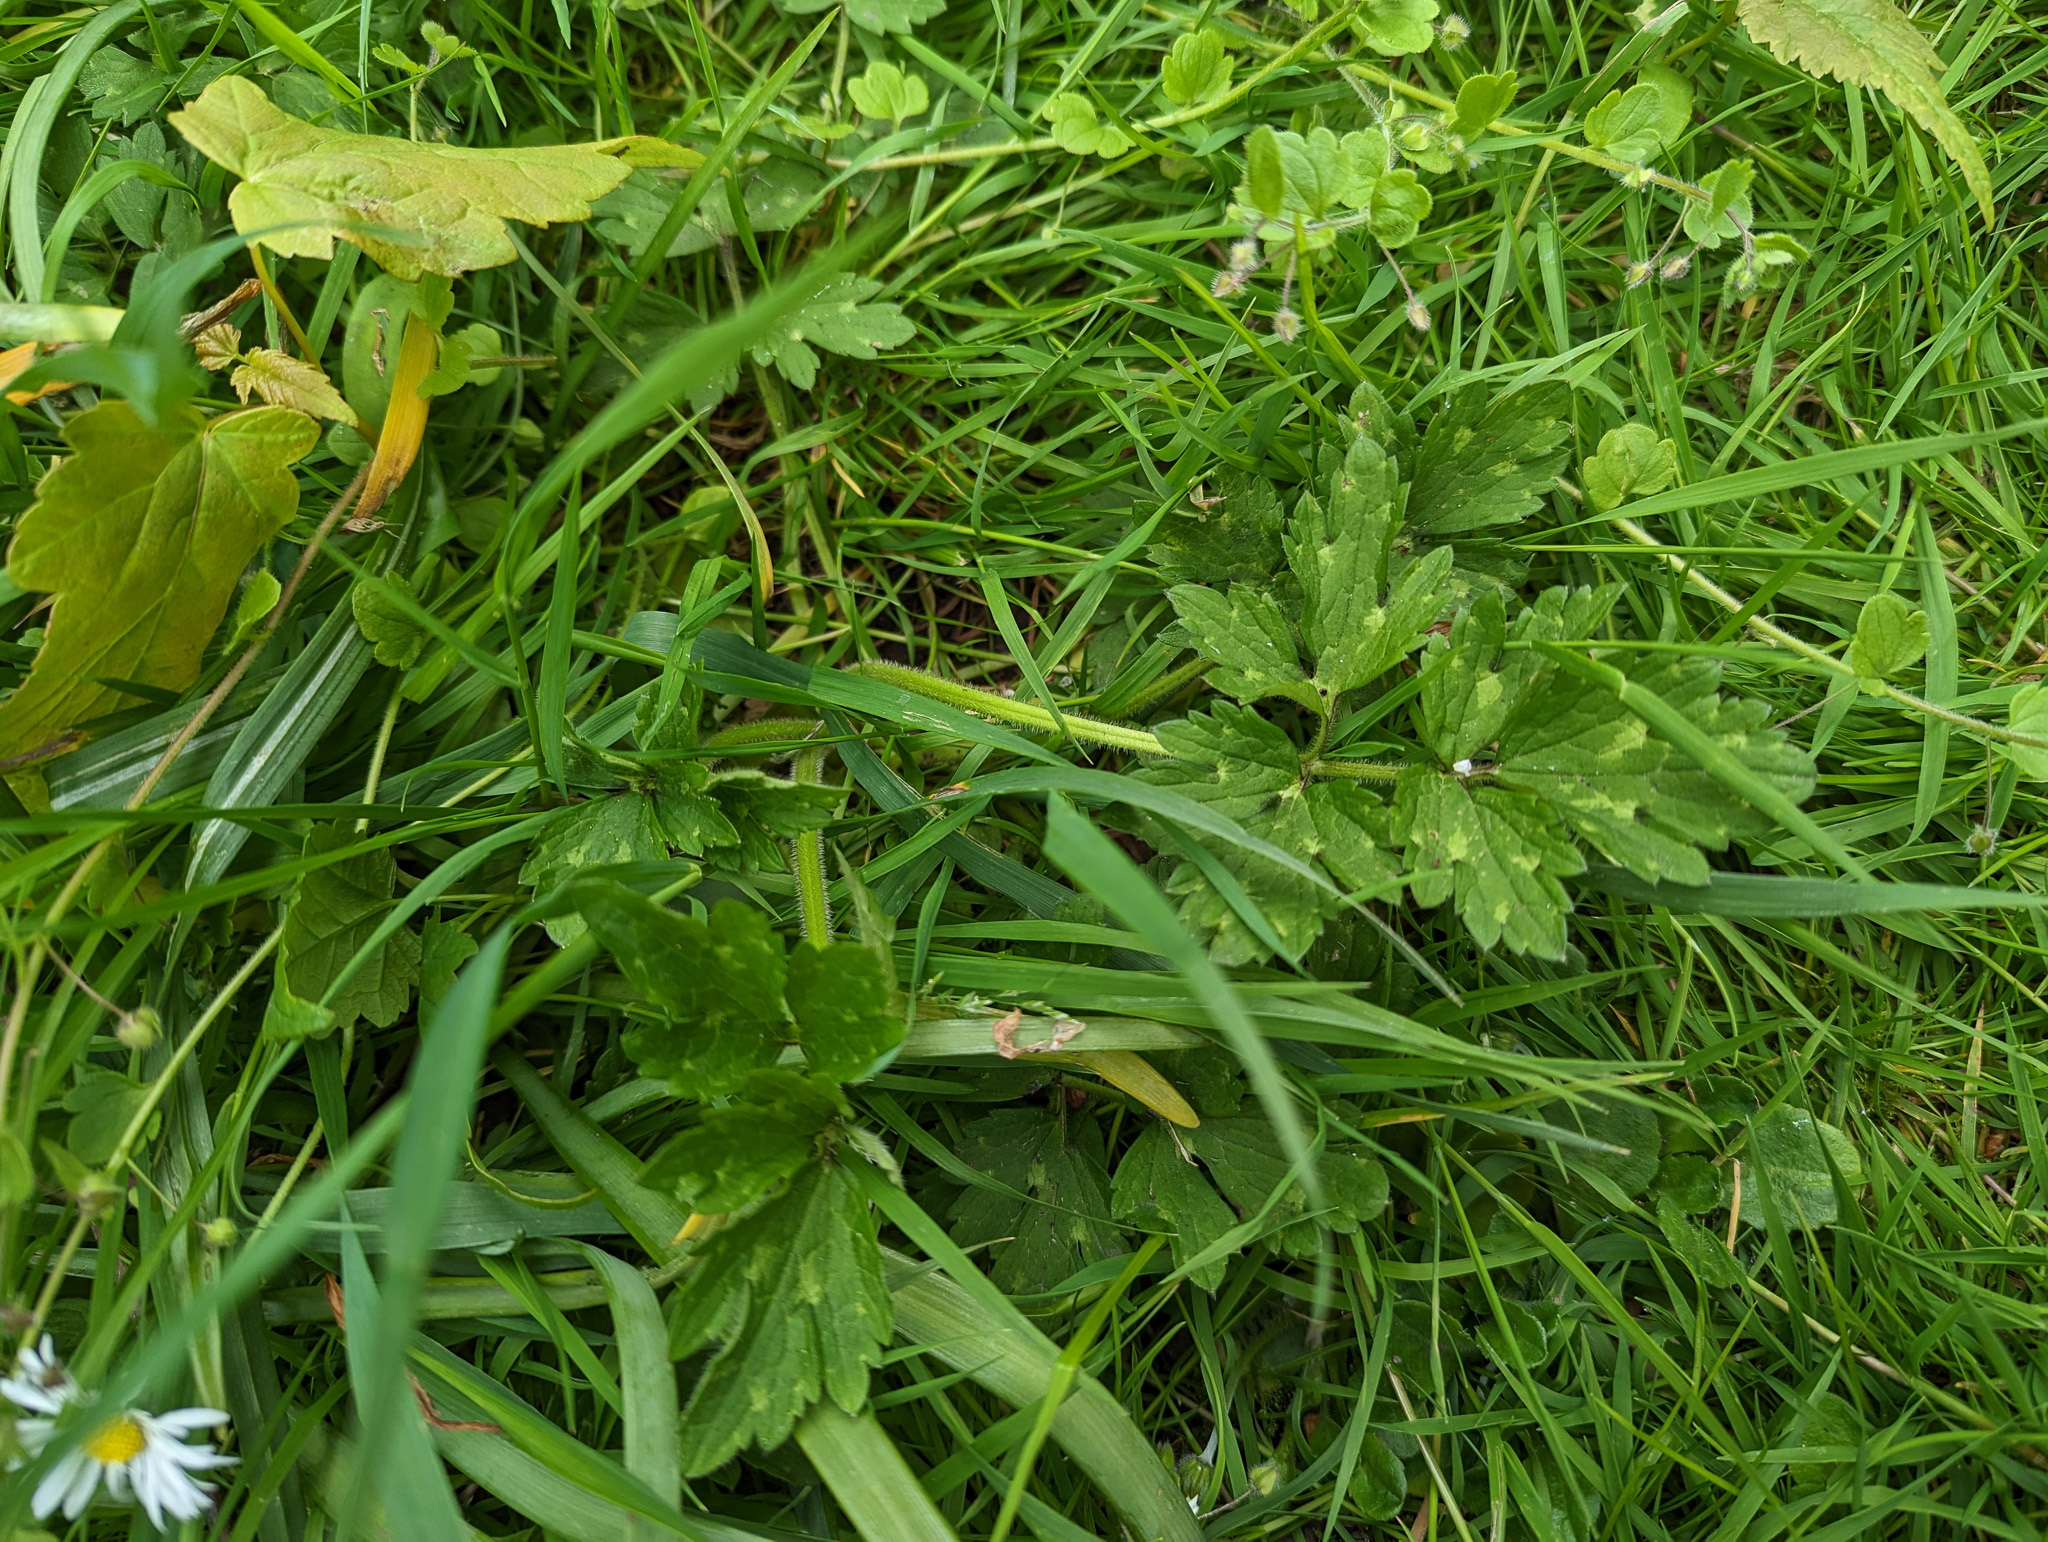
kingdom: Plantae
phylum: Tracheophyta
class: Magnoliopsida
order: Ranunculales
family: Ranunculaceae
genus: Ranunculus
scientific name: Ranunculus repens
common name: Creeping buttercup
